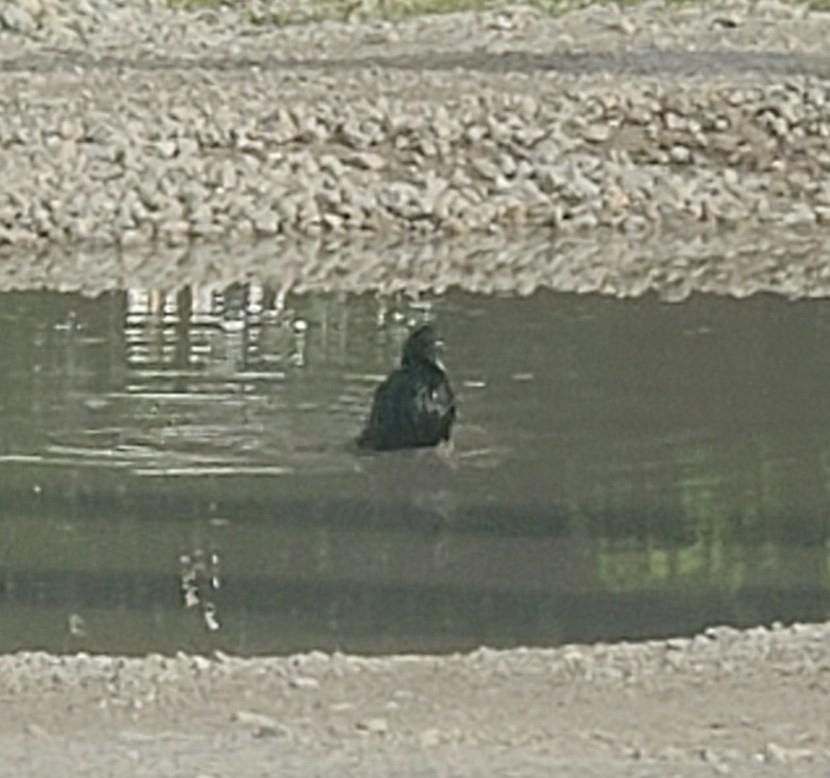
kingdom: Animalia
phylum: Chordata
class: Aves
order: Passeriformes
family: Sturnidae
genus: Sturnus
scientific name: Sturnus vulgaris
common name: Common starling
